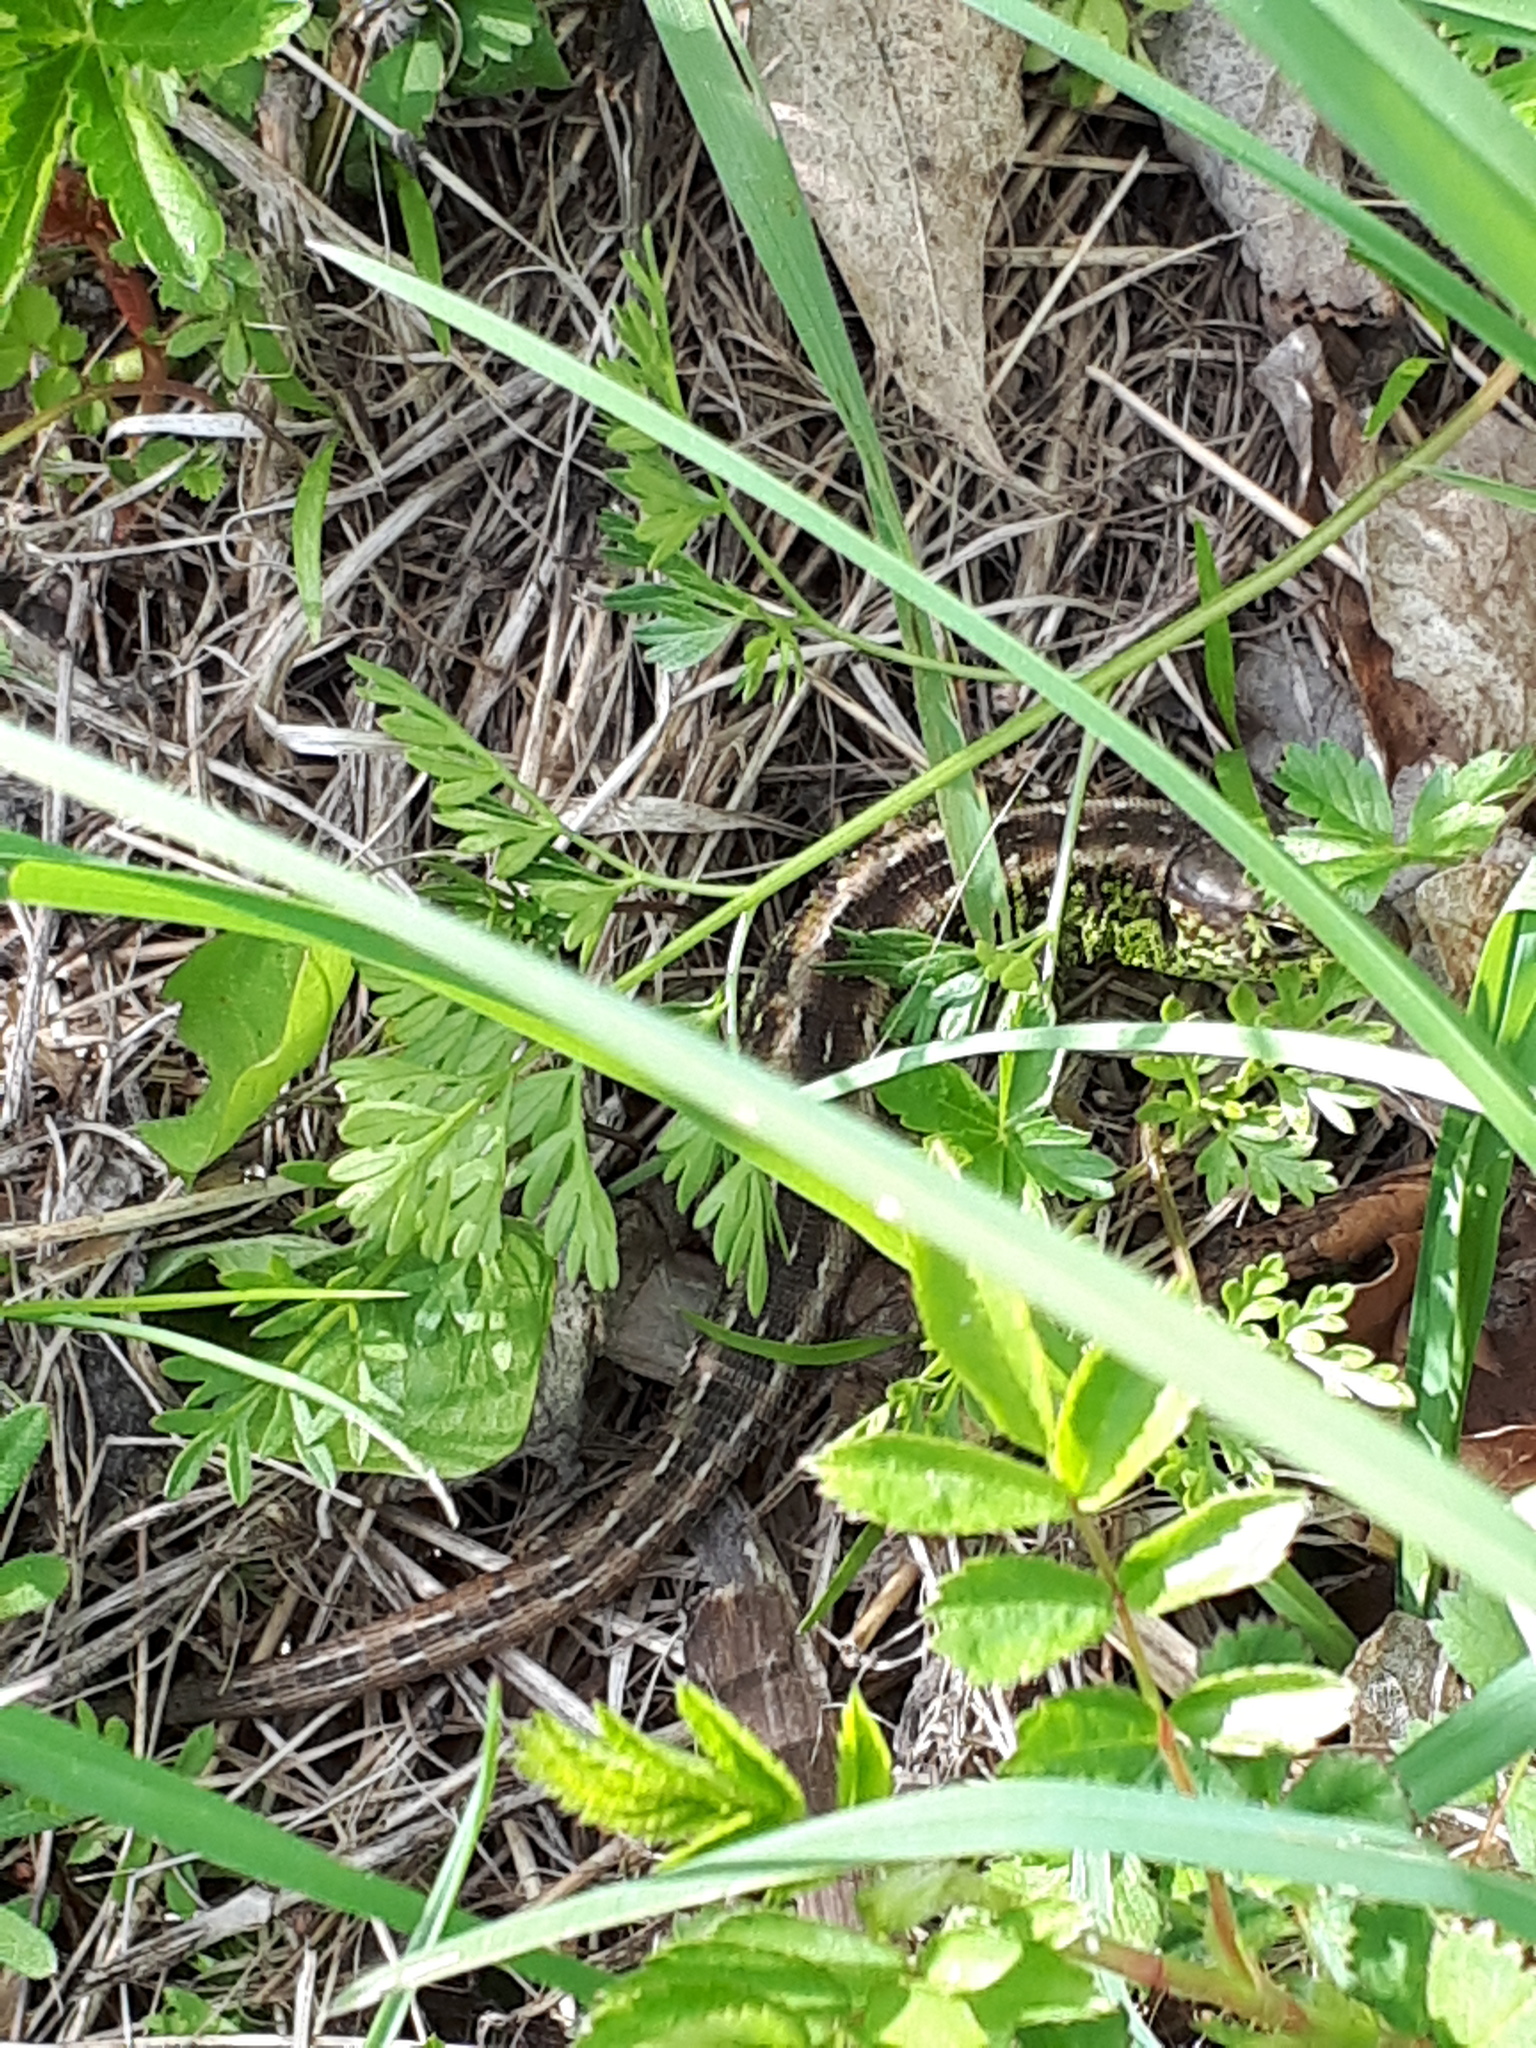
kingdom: Animalia
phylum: Chordata
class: Squamata
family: Lacertidae
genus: Lacerta
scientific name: Lacerta agilis
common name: Sand lizard
